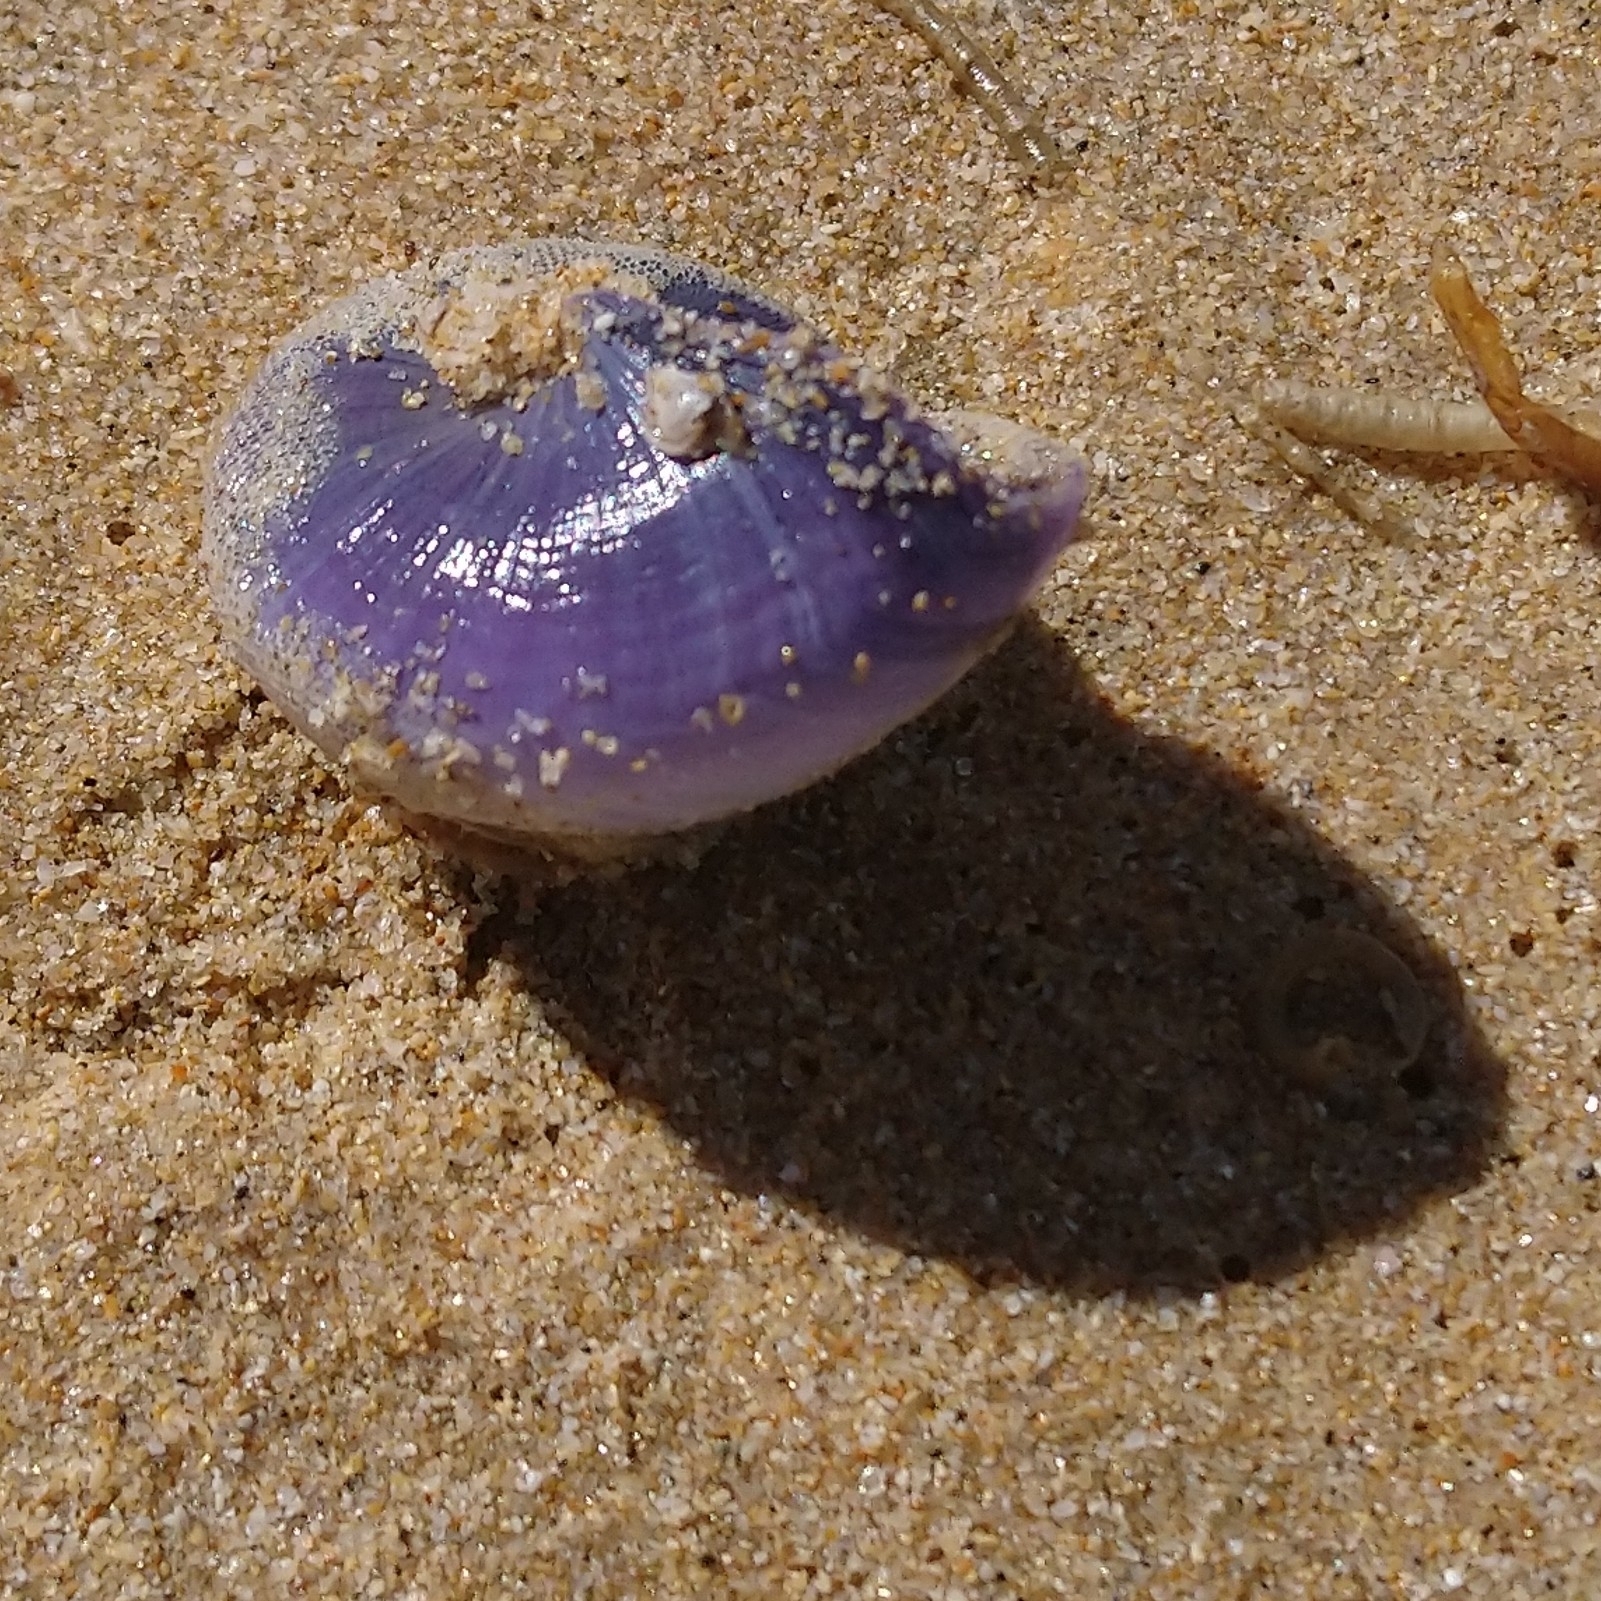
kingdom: Animalia
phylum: Mollusca
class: Gastropoda
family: Epitoniidae
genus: Janthina
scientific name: Janthina janthina
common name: Common janthina
